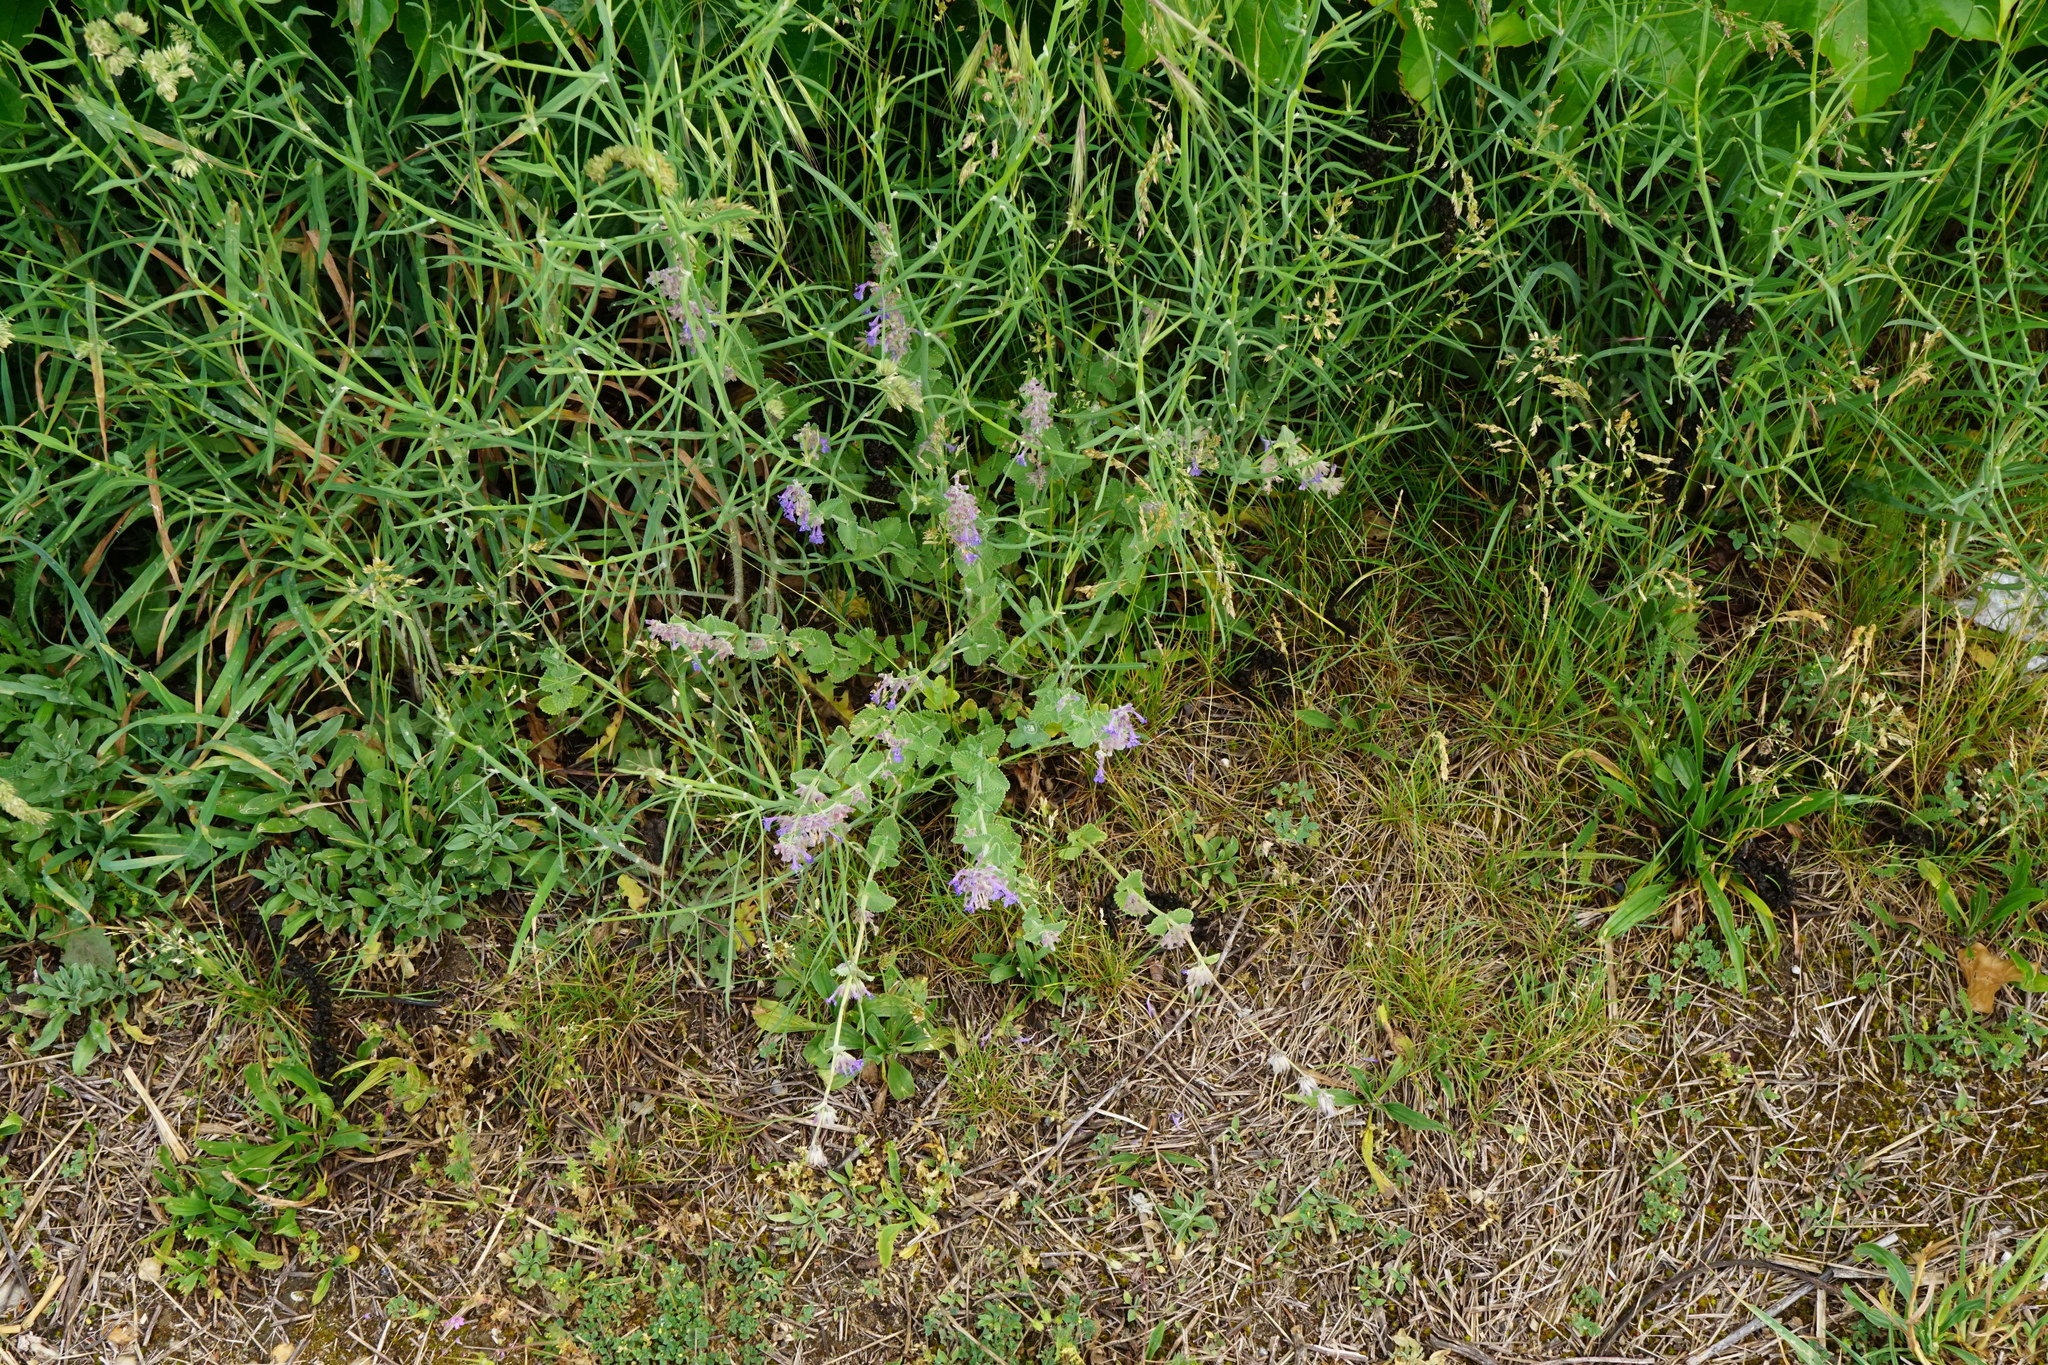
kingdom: Plantae
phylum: Tracheophyta
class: Magnoliopsida
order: Lamiales
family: Lamiaceae
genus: Nepeta
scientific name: Nepeta racemosa
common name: Raceme catnip
